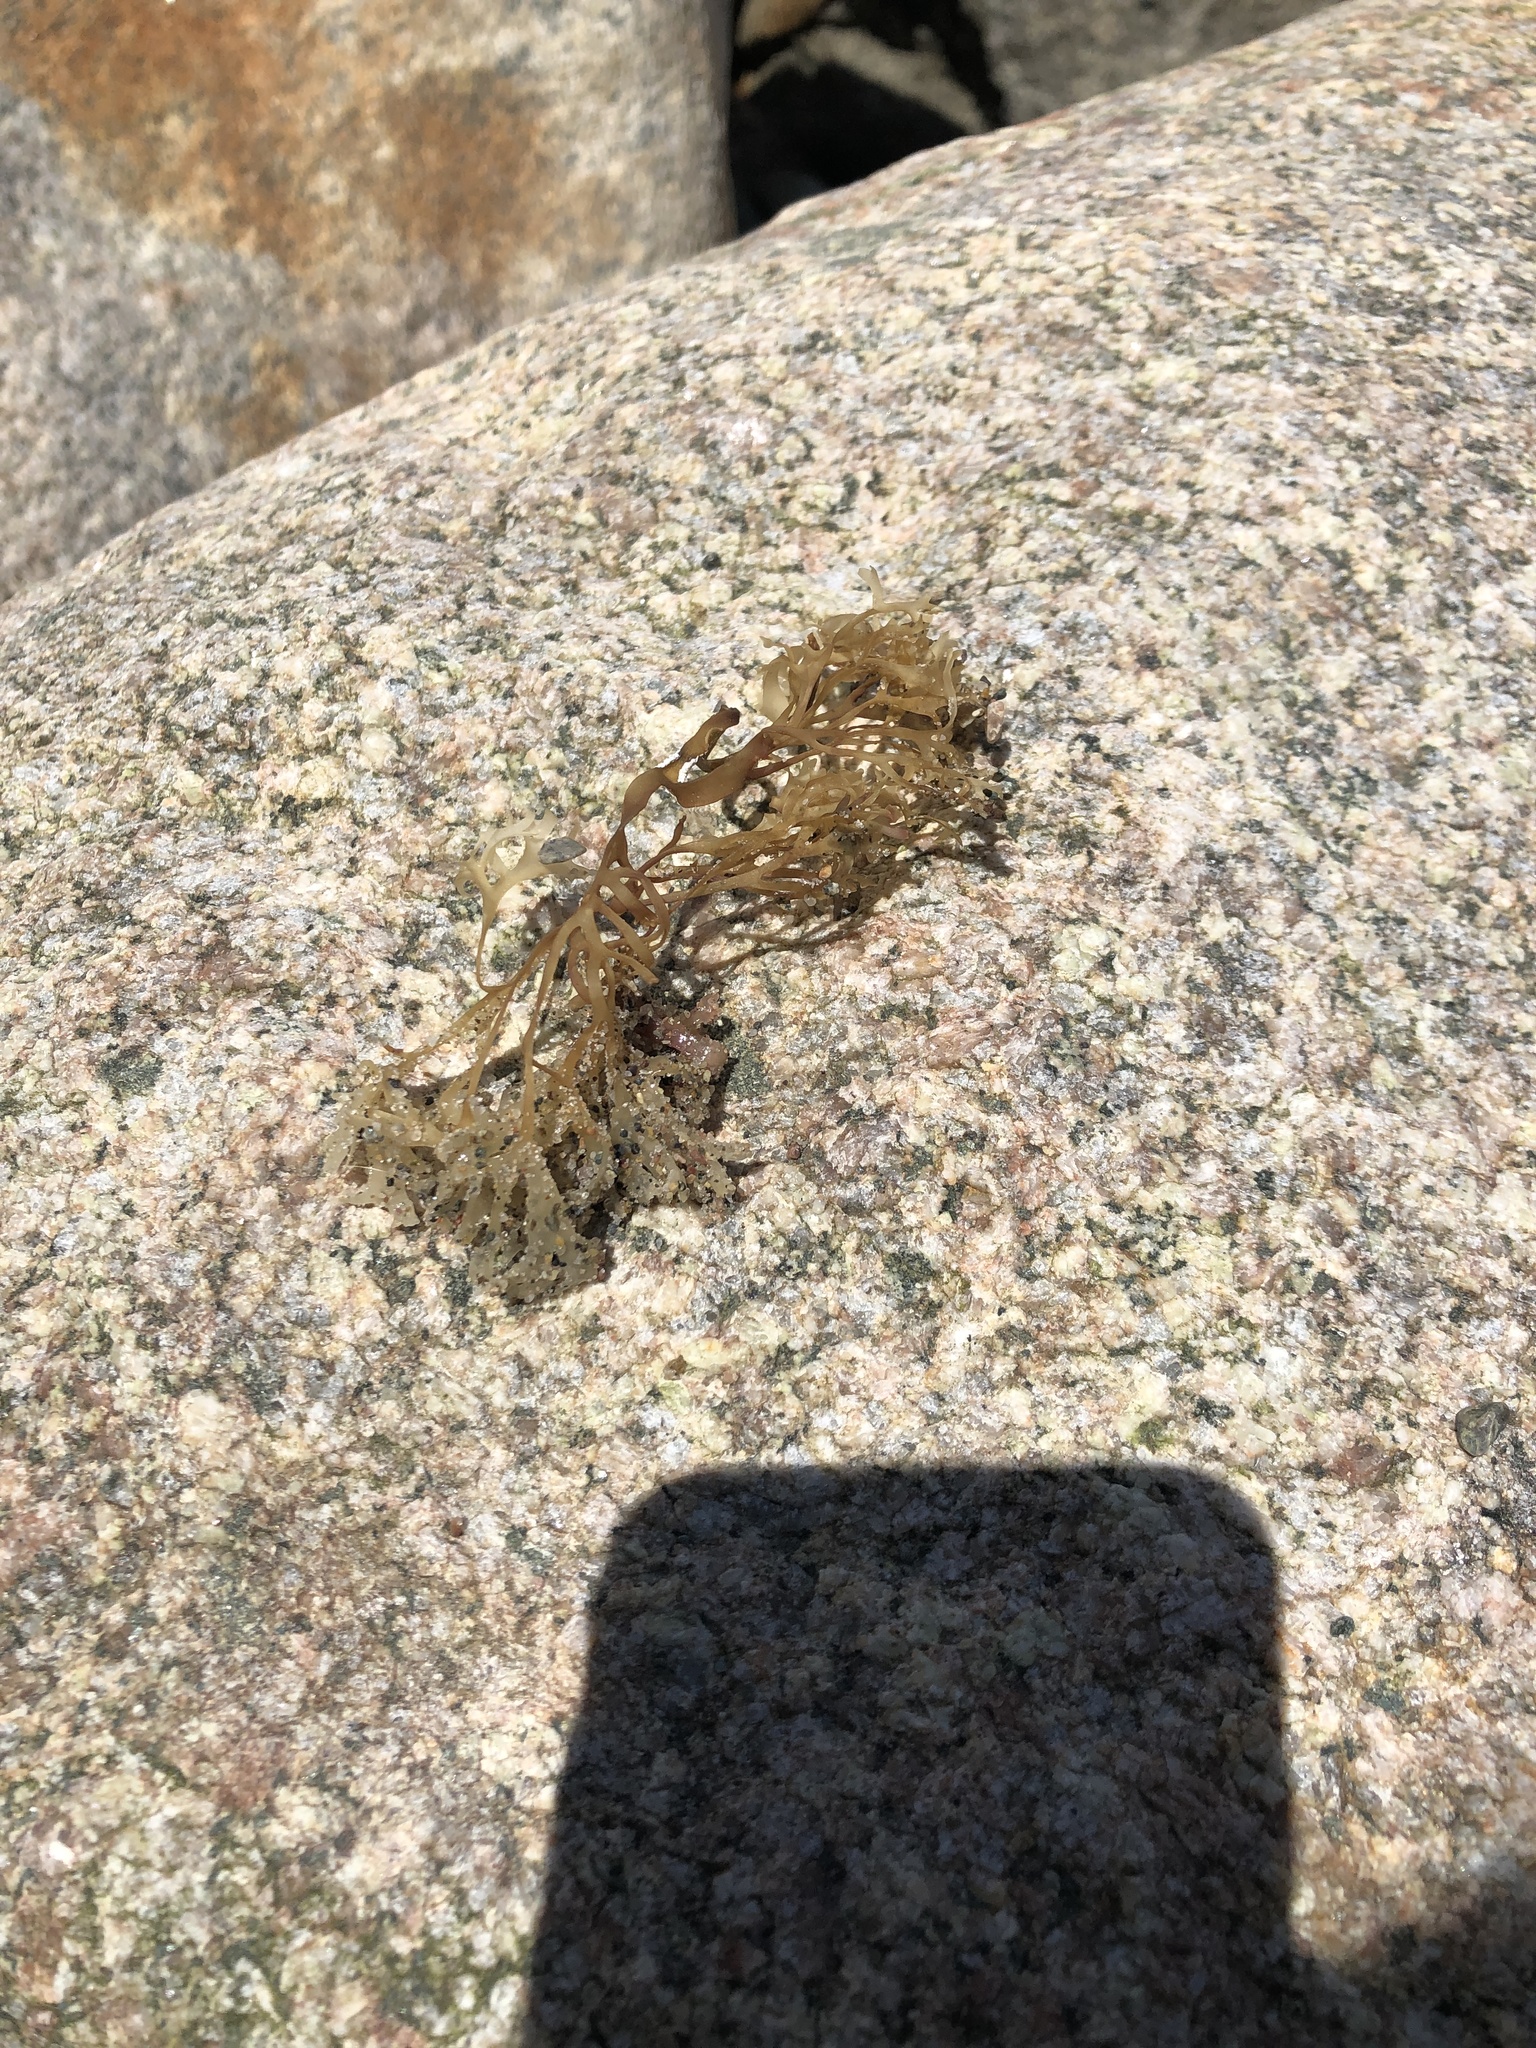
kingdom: Plantae
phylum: Rhodophyta
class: Florideophyceae
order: Gigartinales
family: Gigartinaceae
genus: Chondrus
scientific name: Chondrus crispus
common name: Carrageen
